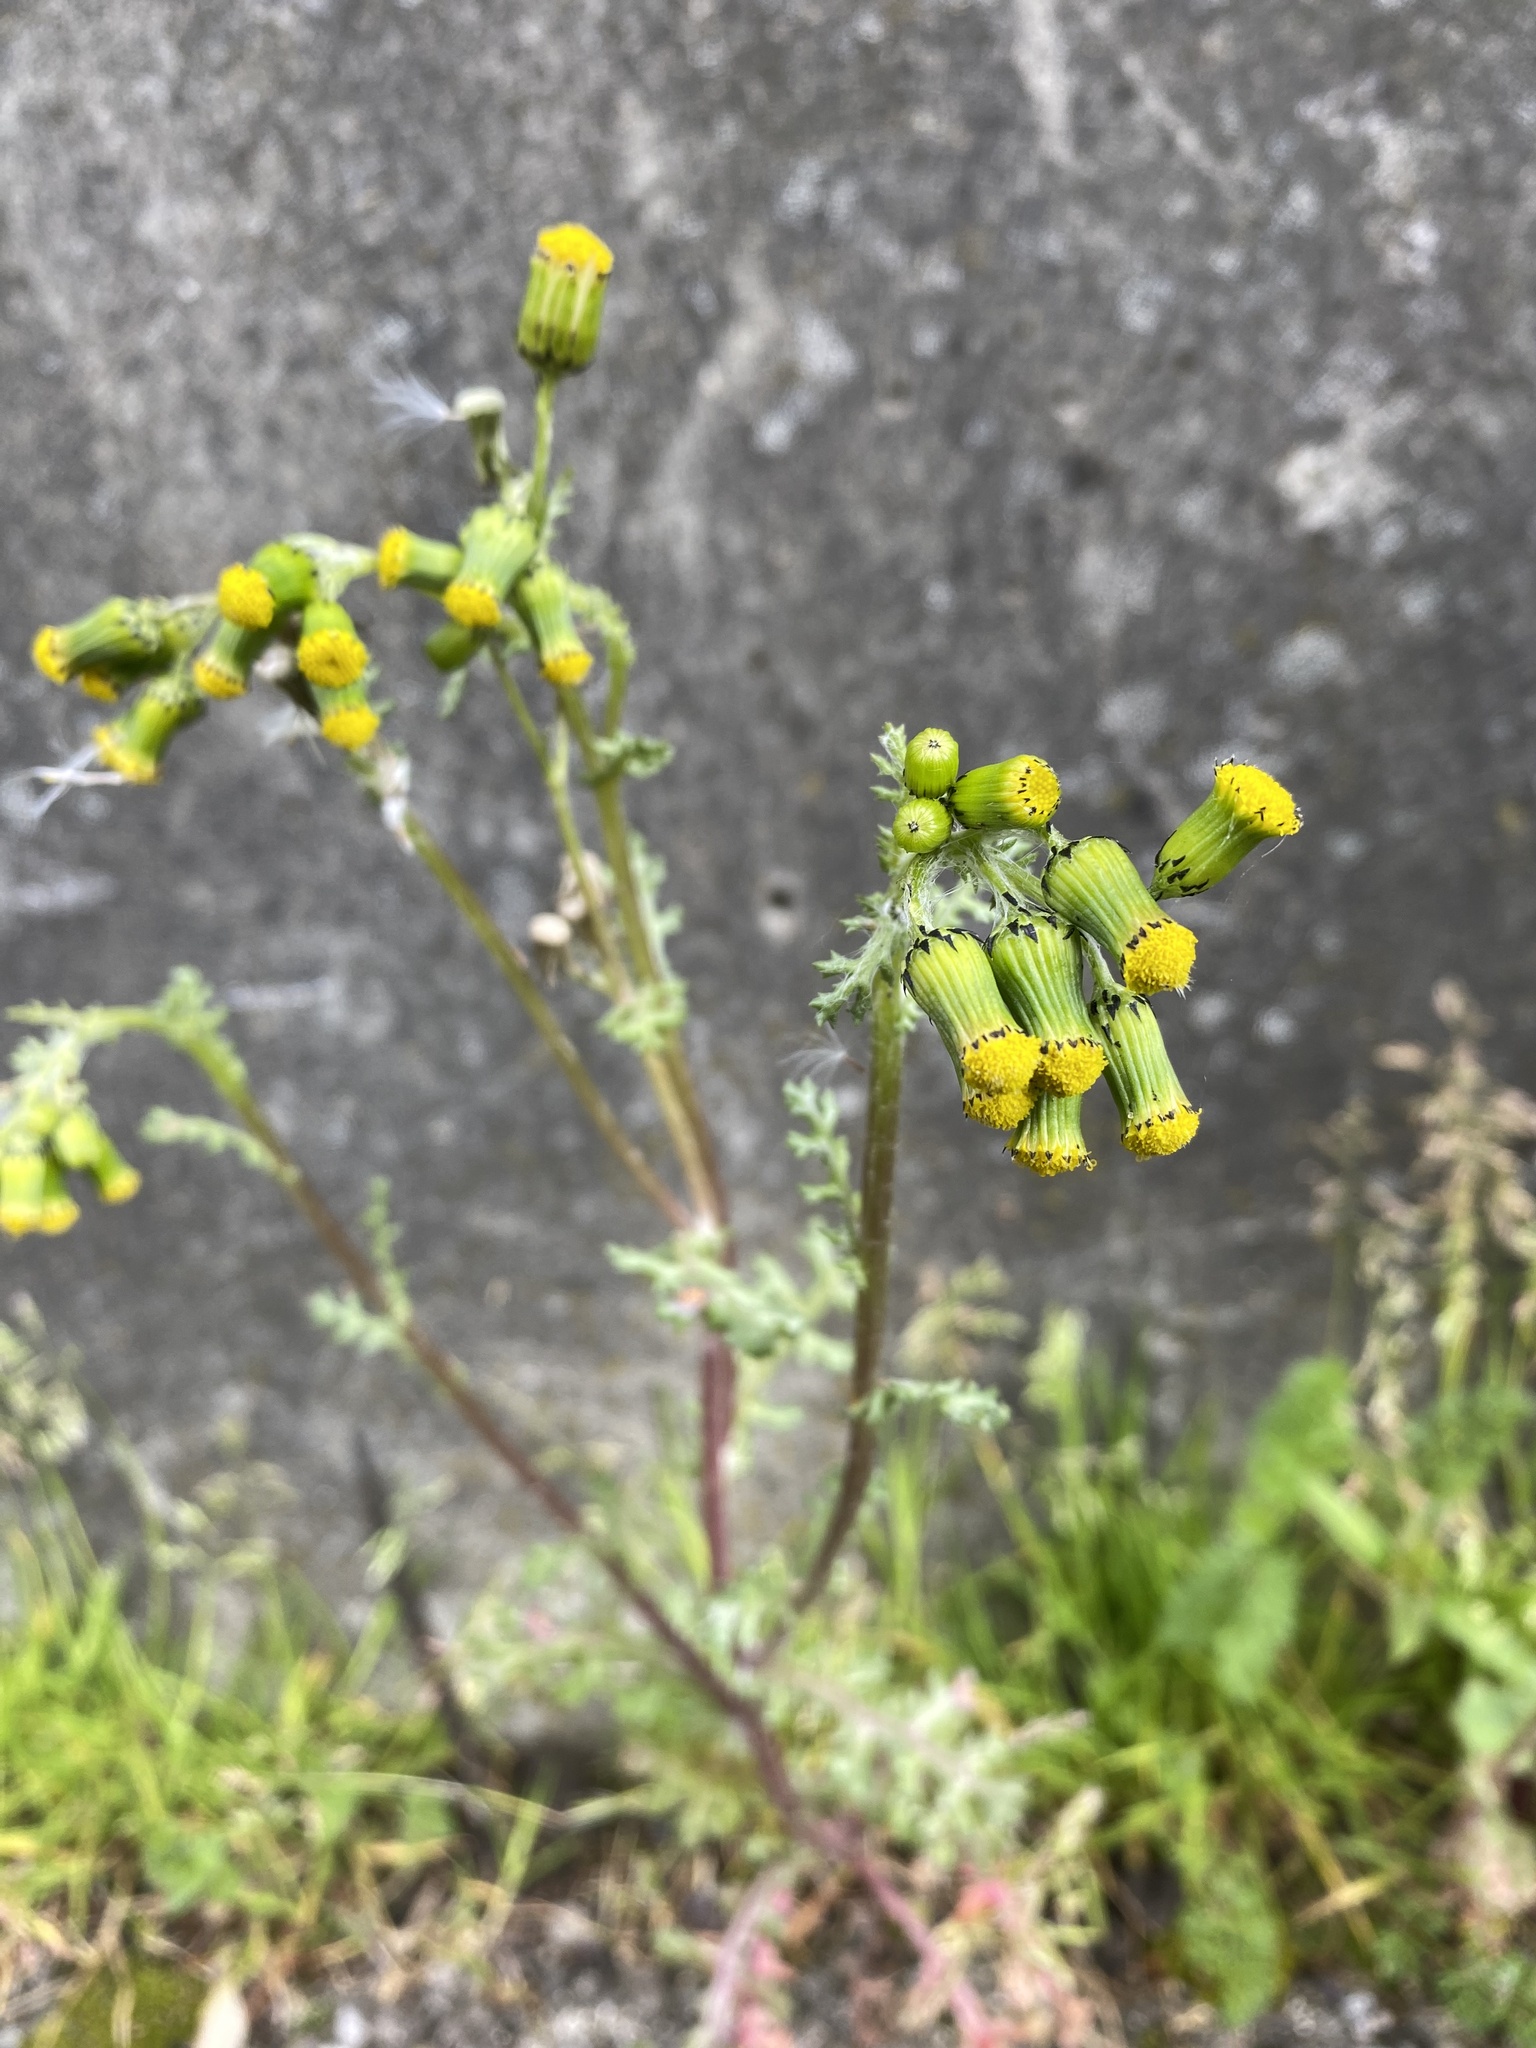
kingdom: Plantae
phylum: Tracheophyta
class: Magnoliopsida
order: Asterales
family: Asteraceae
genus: Senecio
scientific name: Senecio vulgaris
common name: Old-man-in-the-spring
